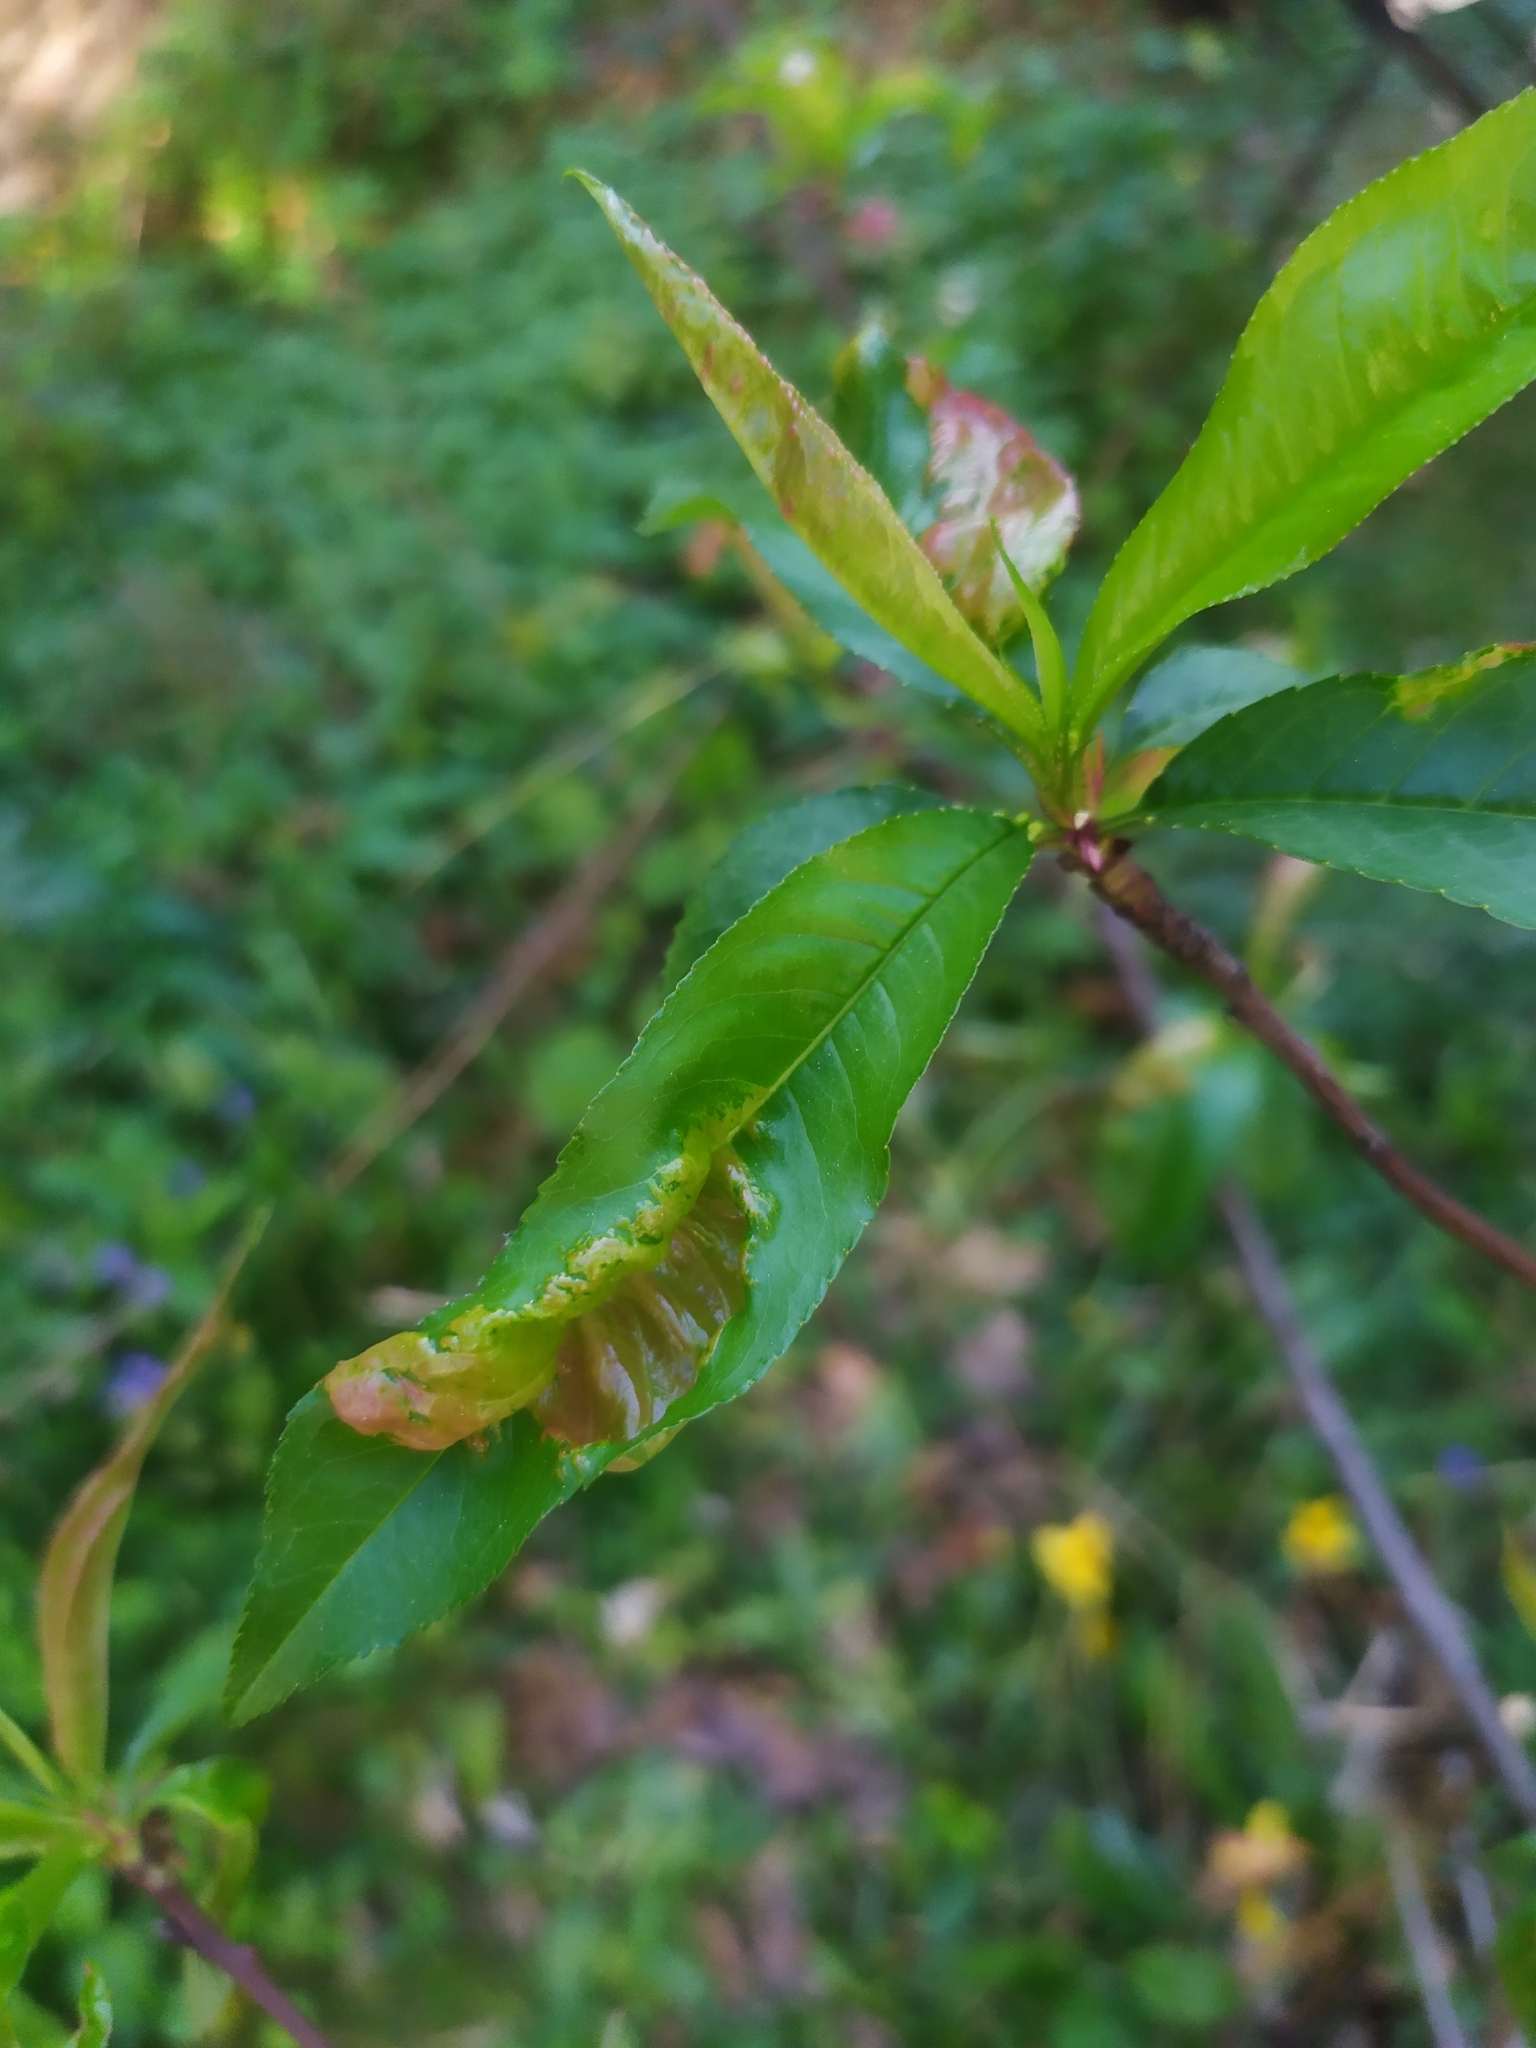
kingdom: Fungi
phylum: Ascomycota
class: Taphrinomycetes
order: Taphrinales
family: Taphrinaceae
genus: Taphrina
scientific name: Taphrina deformans
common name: Peach leaf curl
